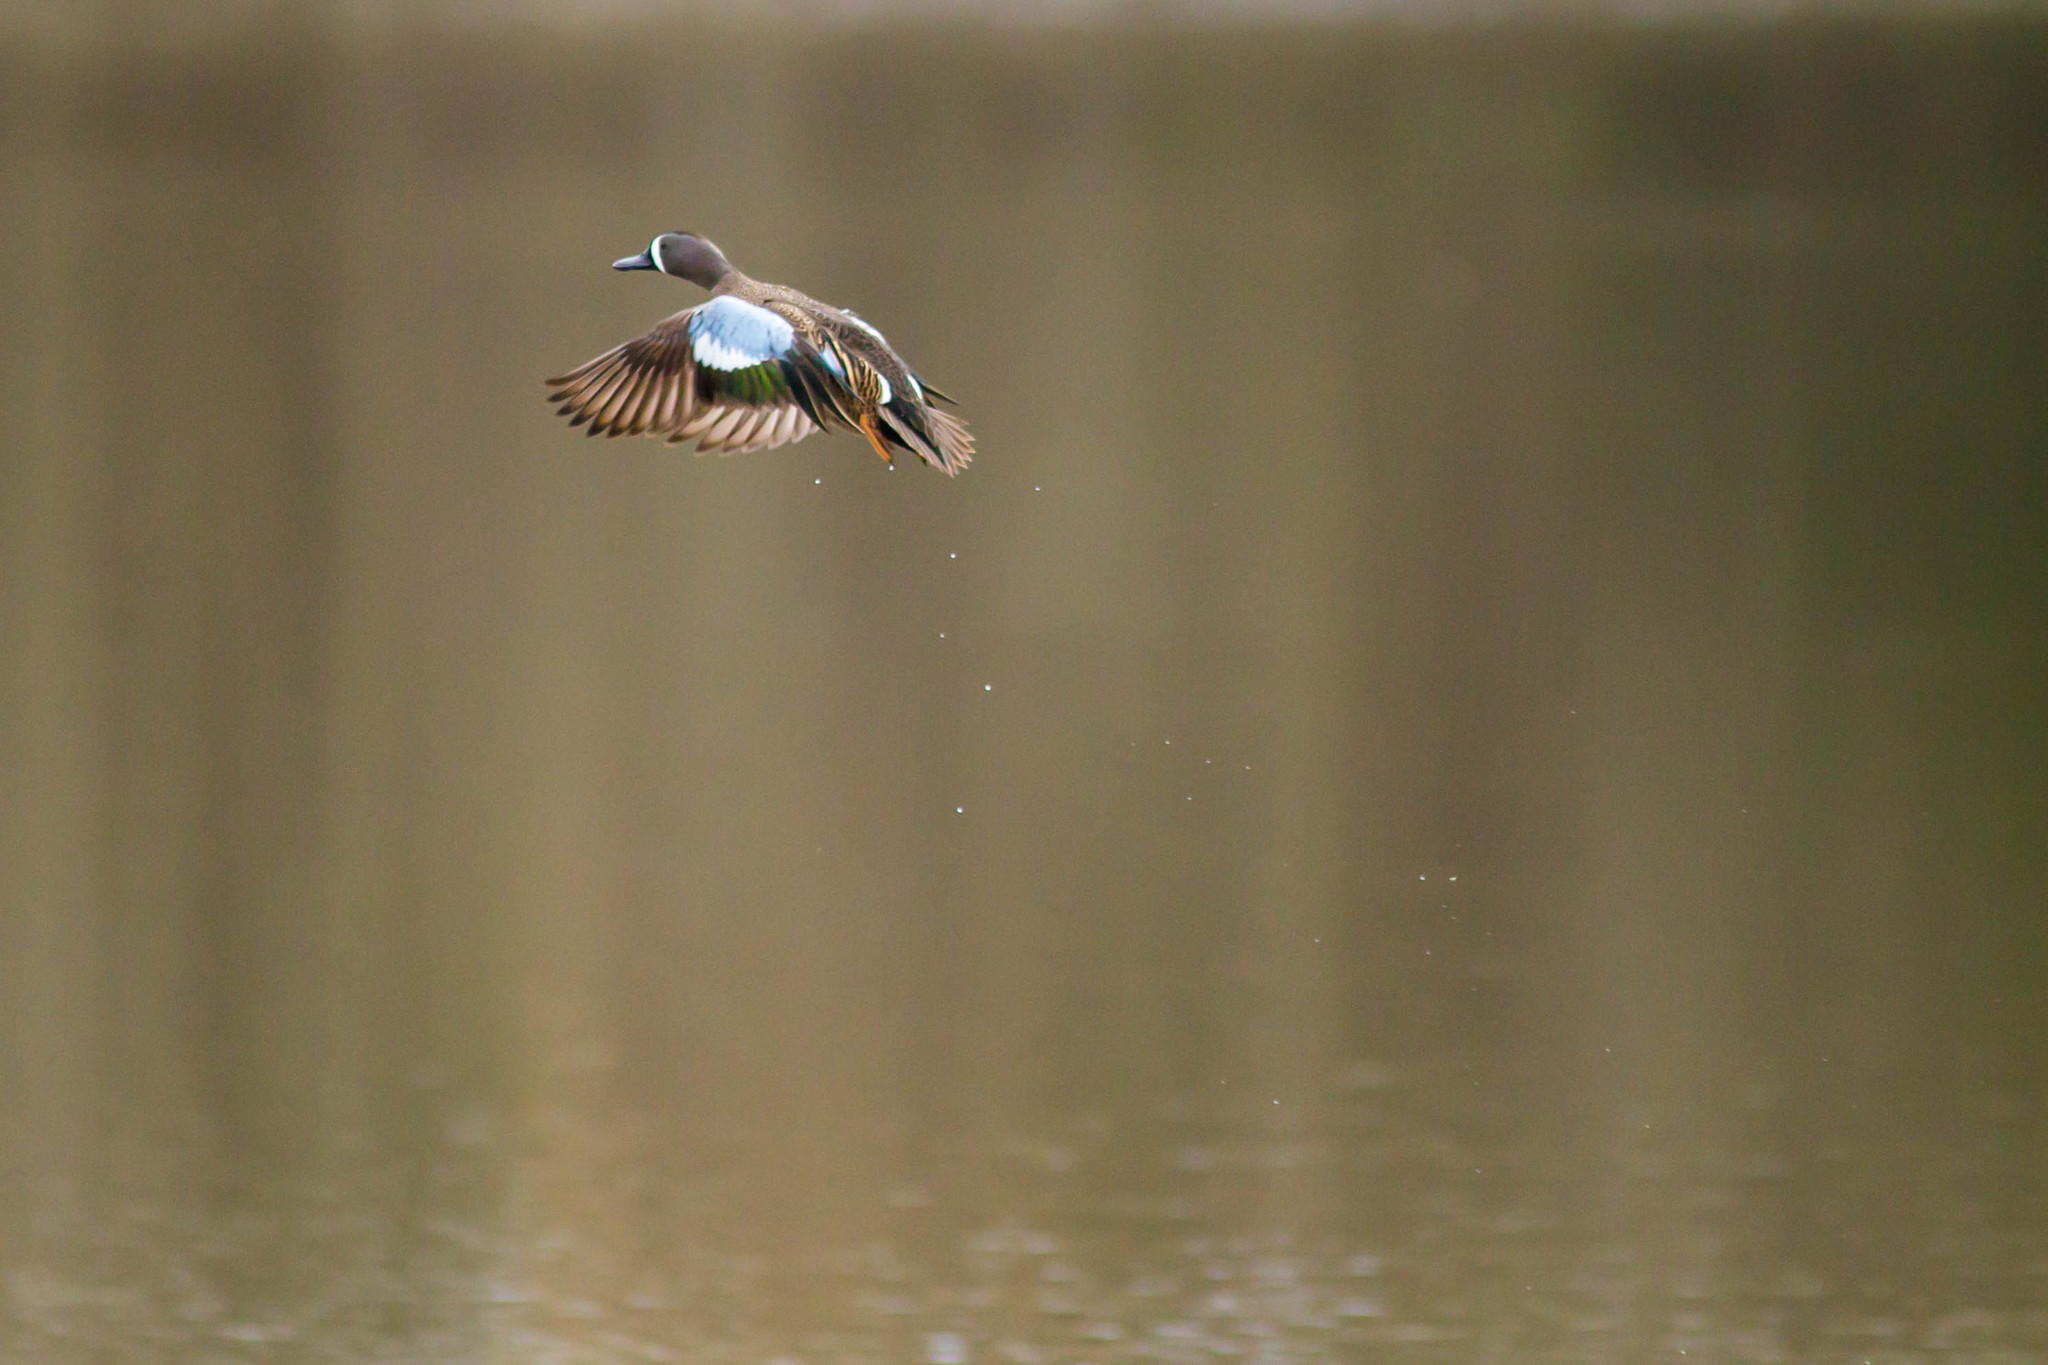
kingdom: Animalia
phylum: Chordata
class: Aves
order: Anseriformes
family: Anatidae
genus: Spatula
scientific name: Spatula discors
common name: Blue-winged teal
